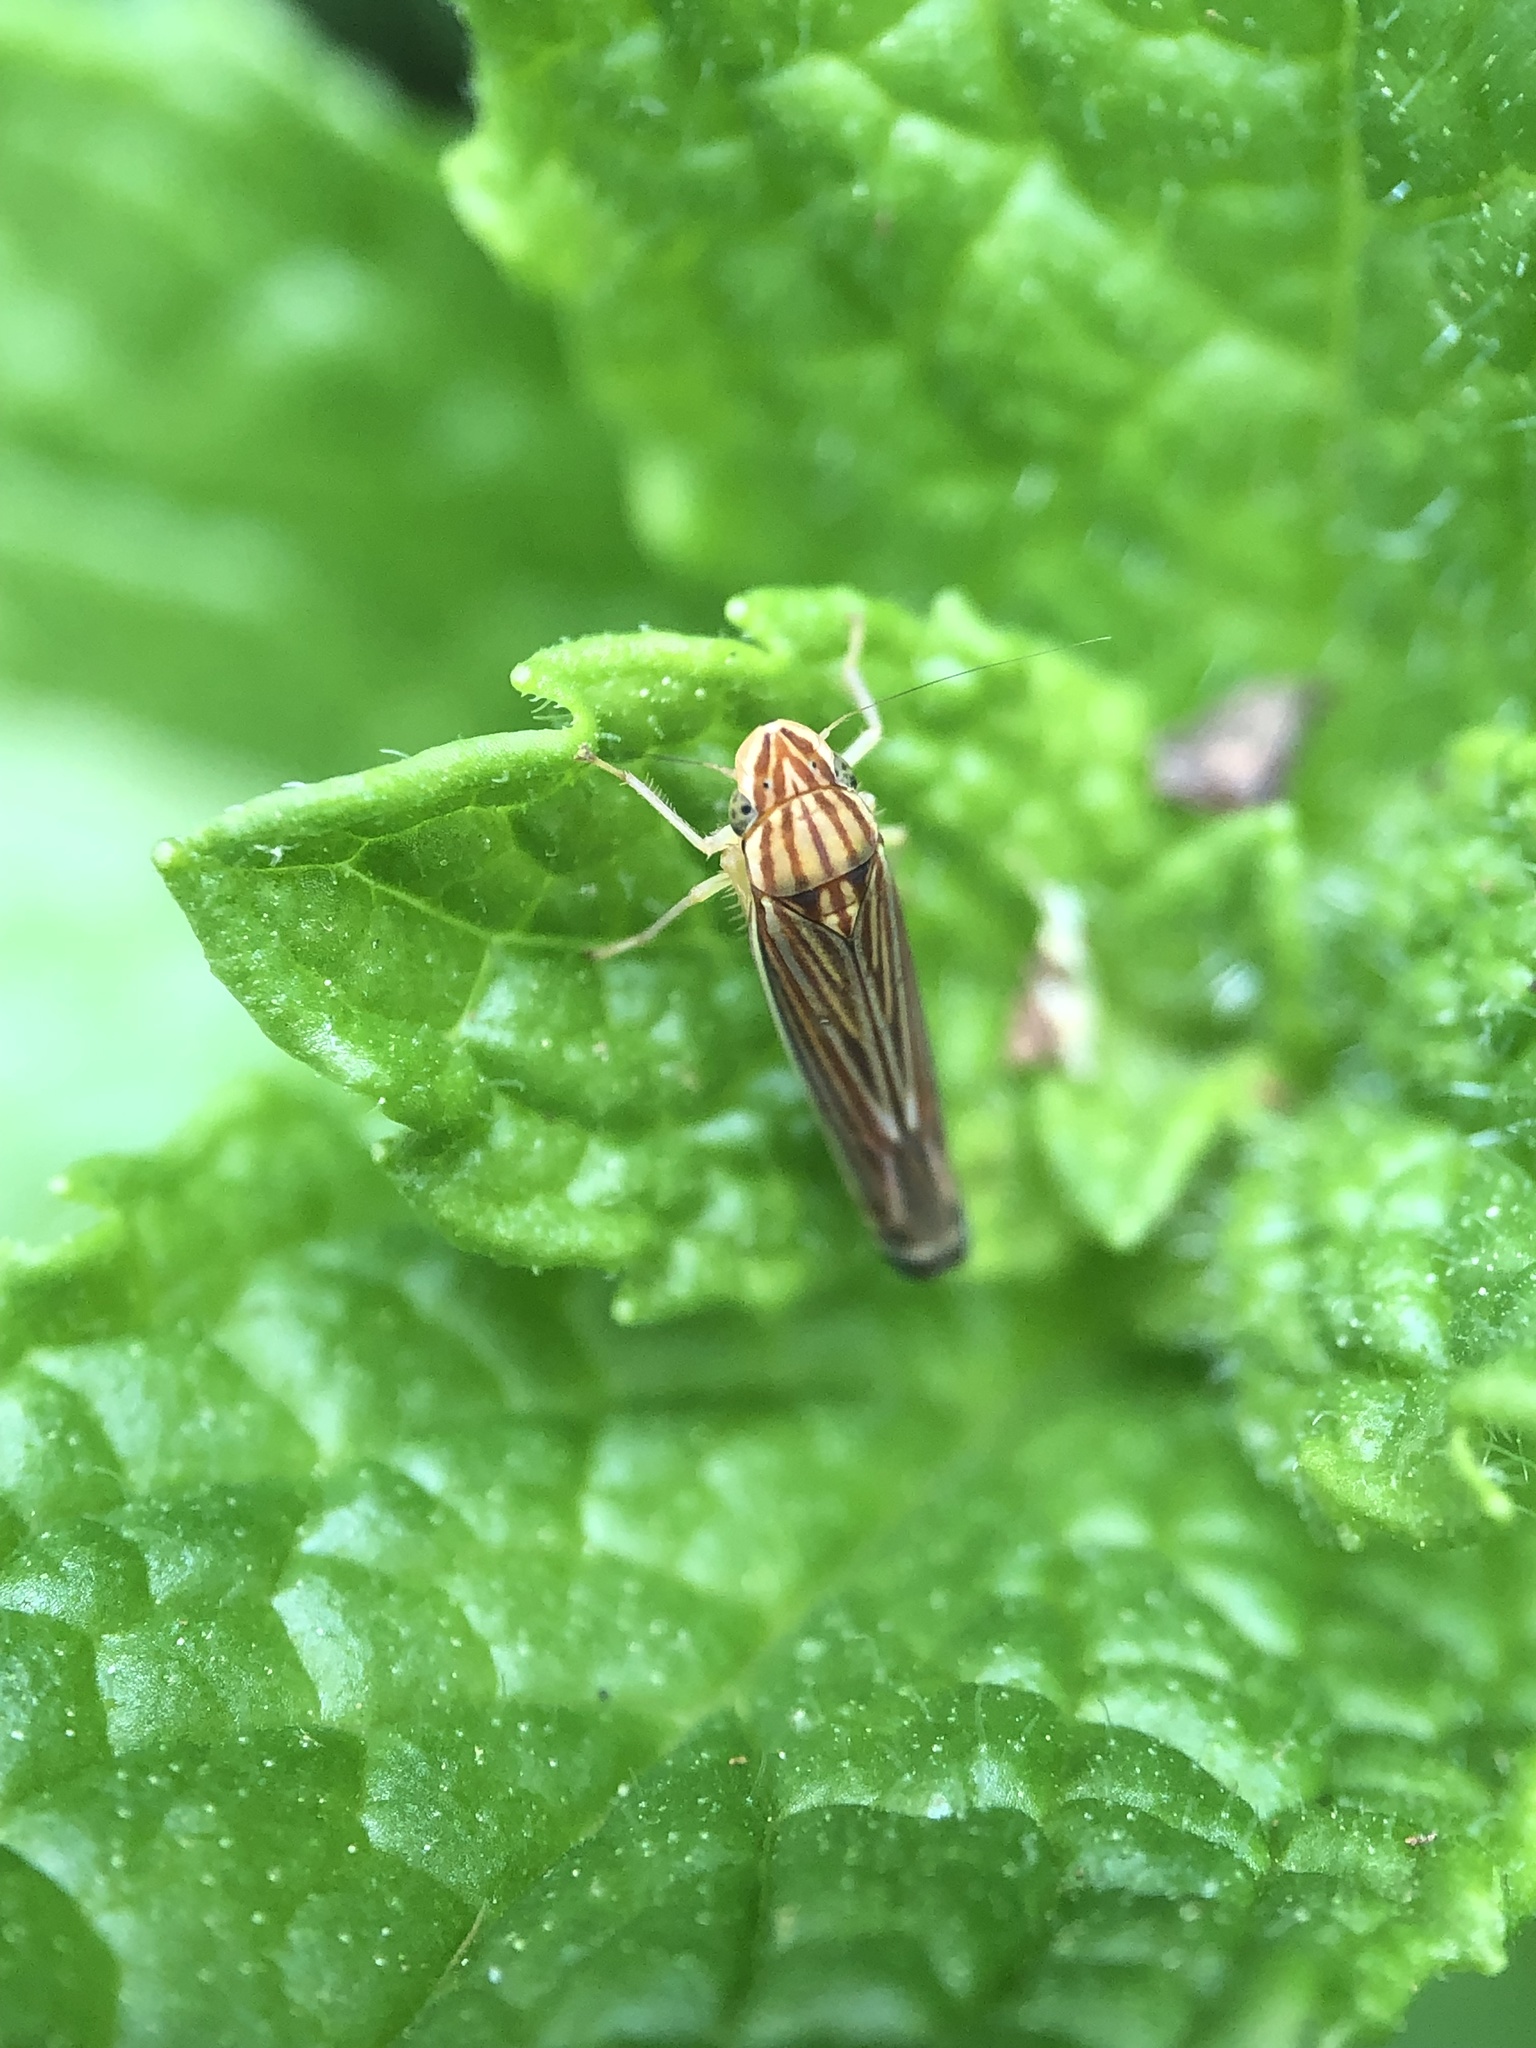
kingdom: Animalia
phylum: Arthropoda
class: Insecta
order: Hemiptera
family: Cicadellidae
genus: Sibovia
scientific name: Sibovia occatoria
